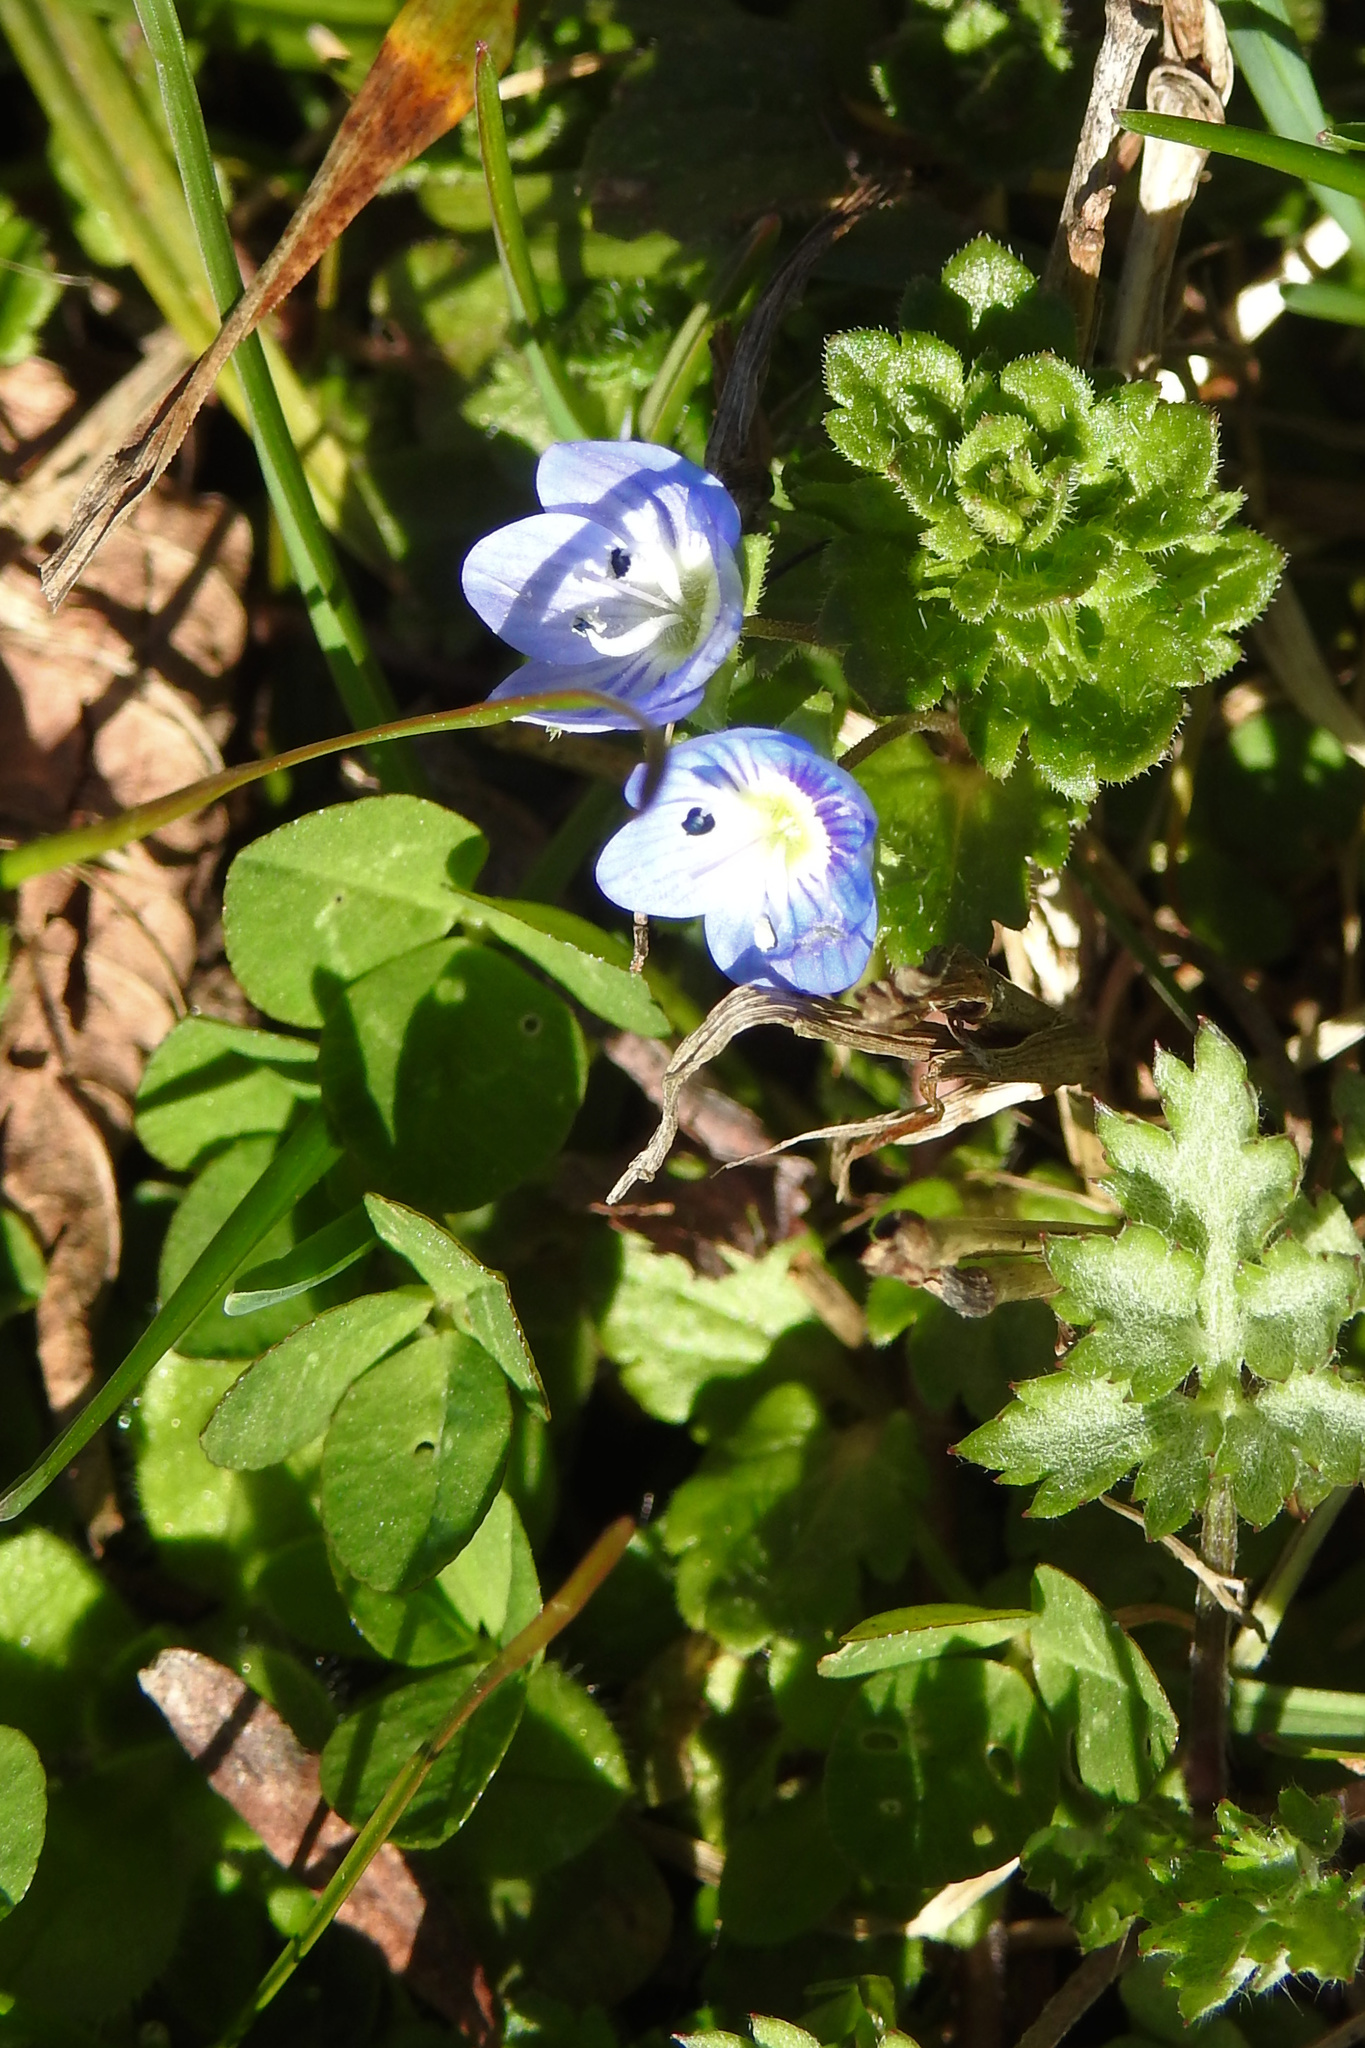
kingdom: Plantae
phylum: Tracheophyta
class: Magnoliopsida
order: Lamiales
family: Plantaginaceae
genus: Veronica
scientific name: Veronica persica
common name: Common field-speedwell
